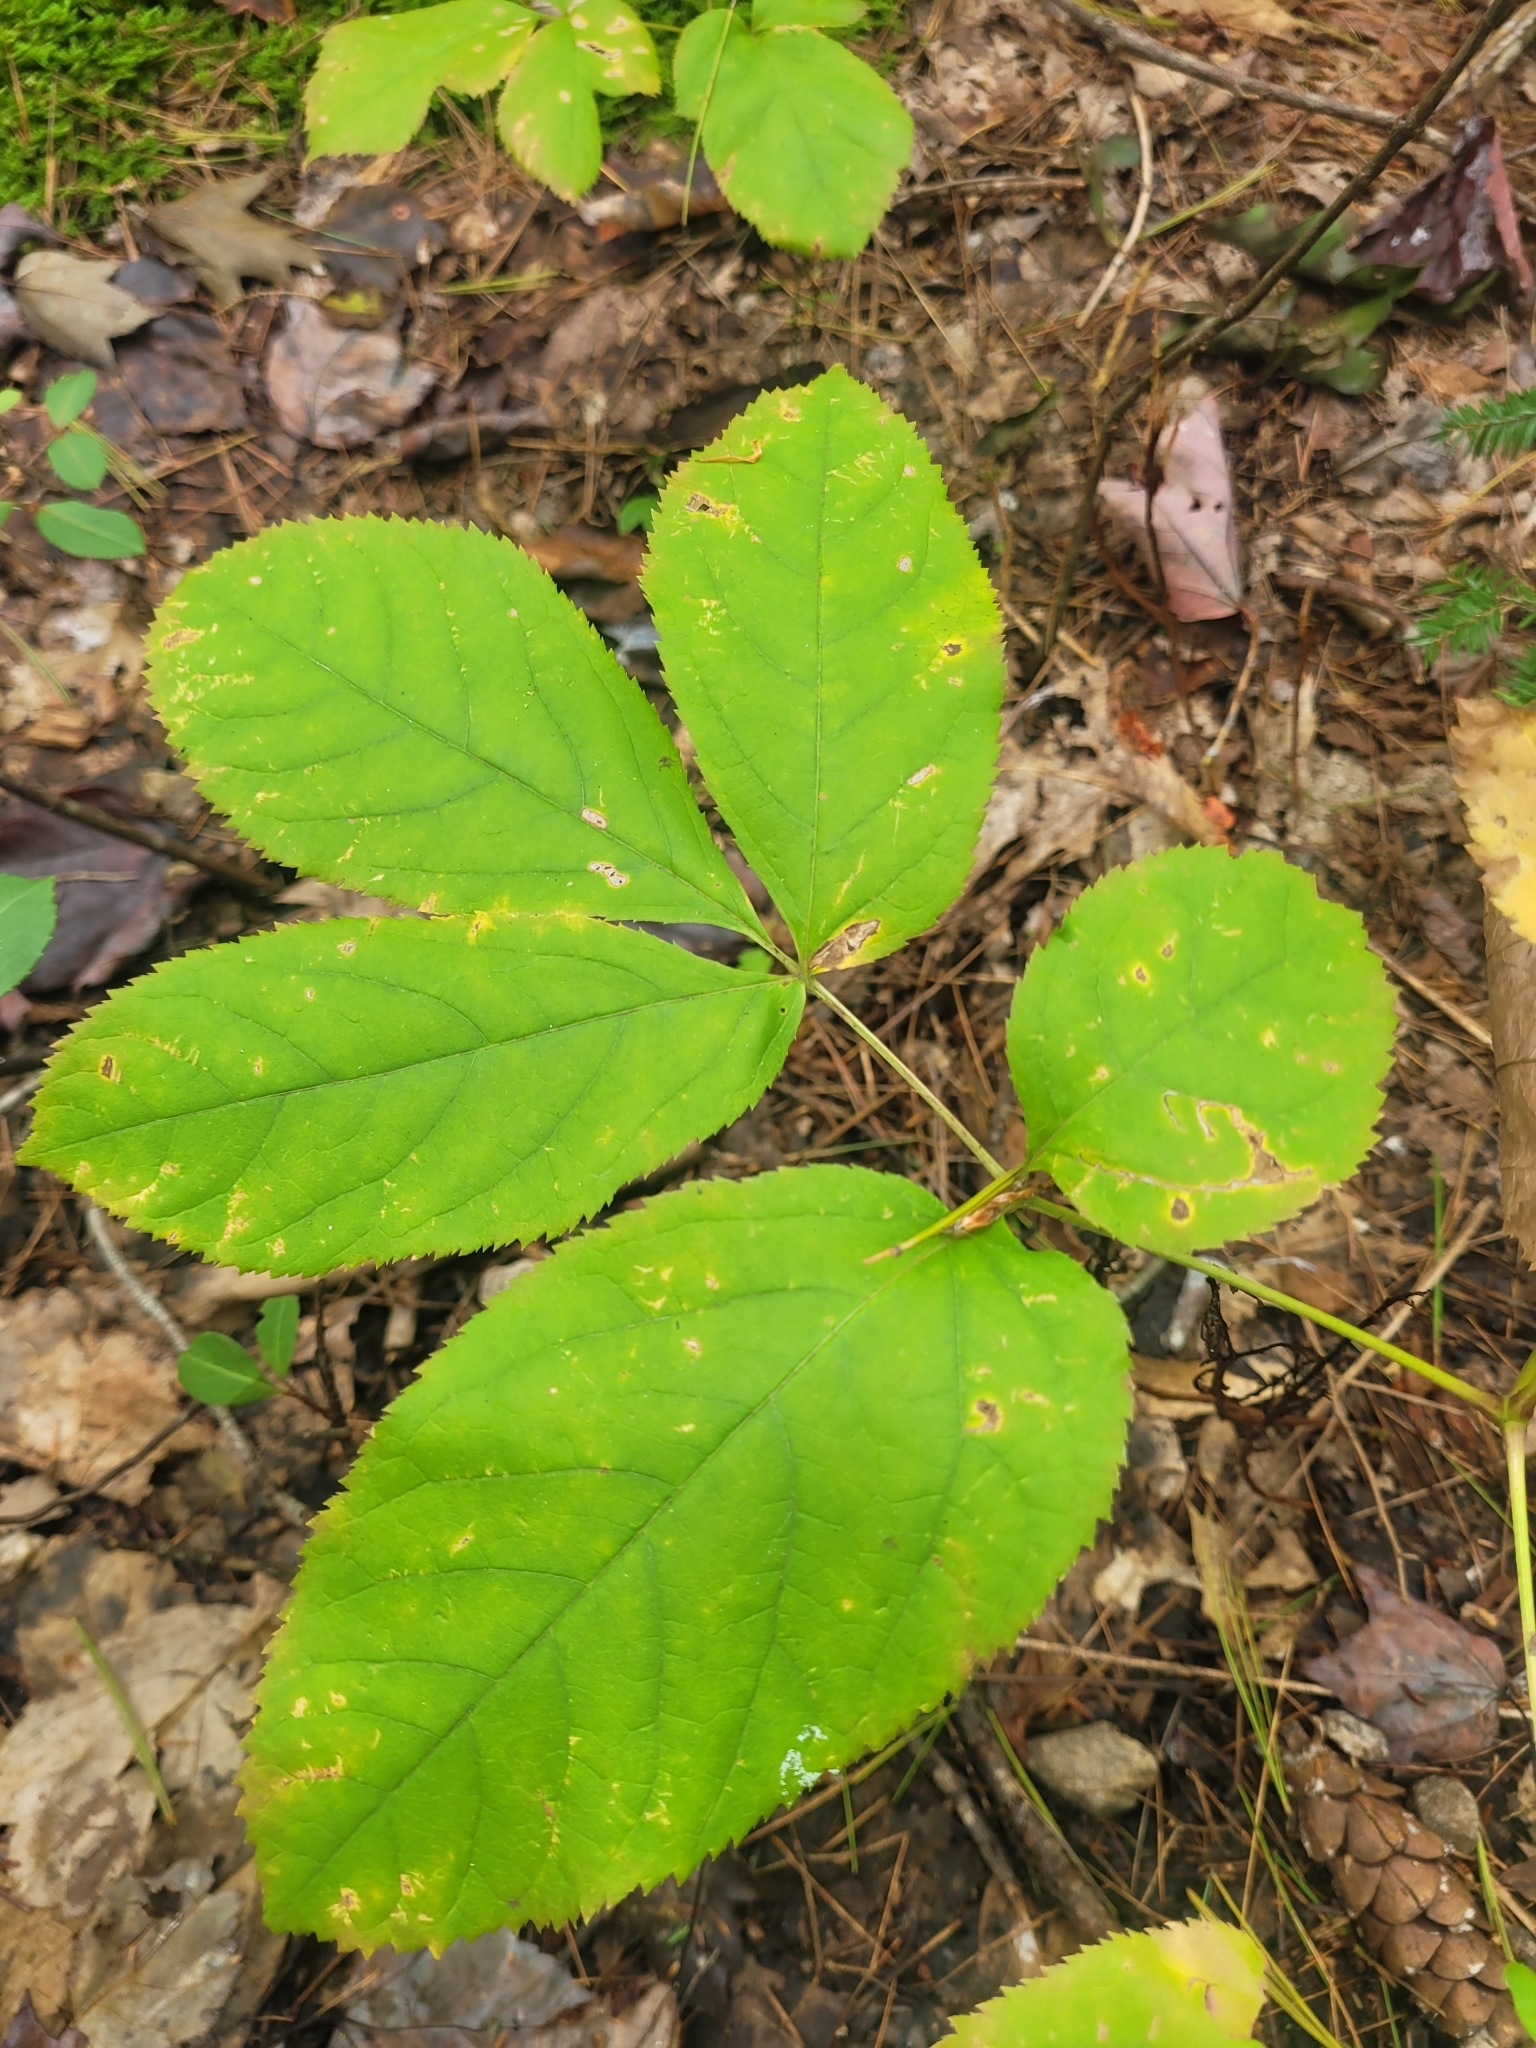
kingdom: Plantae
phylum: Tracheophyta
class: Magnoliopsida
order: Apiales
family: Araliaceae
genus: Aralia
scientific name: Aralia nudicaulis
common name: Wild sarsaparilla
